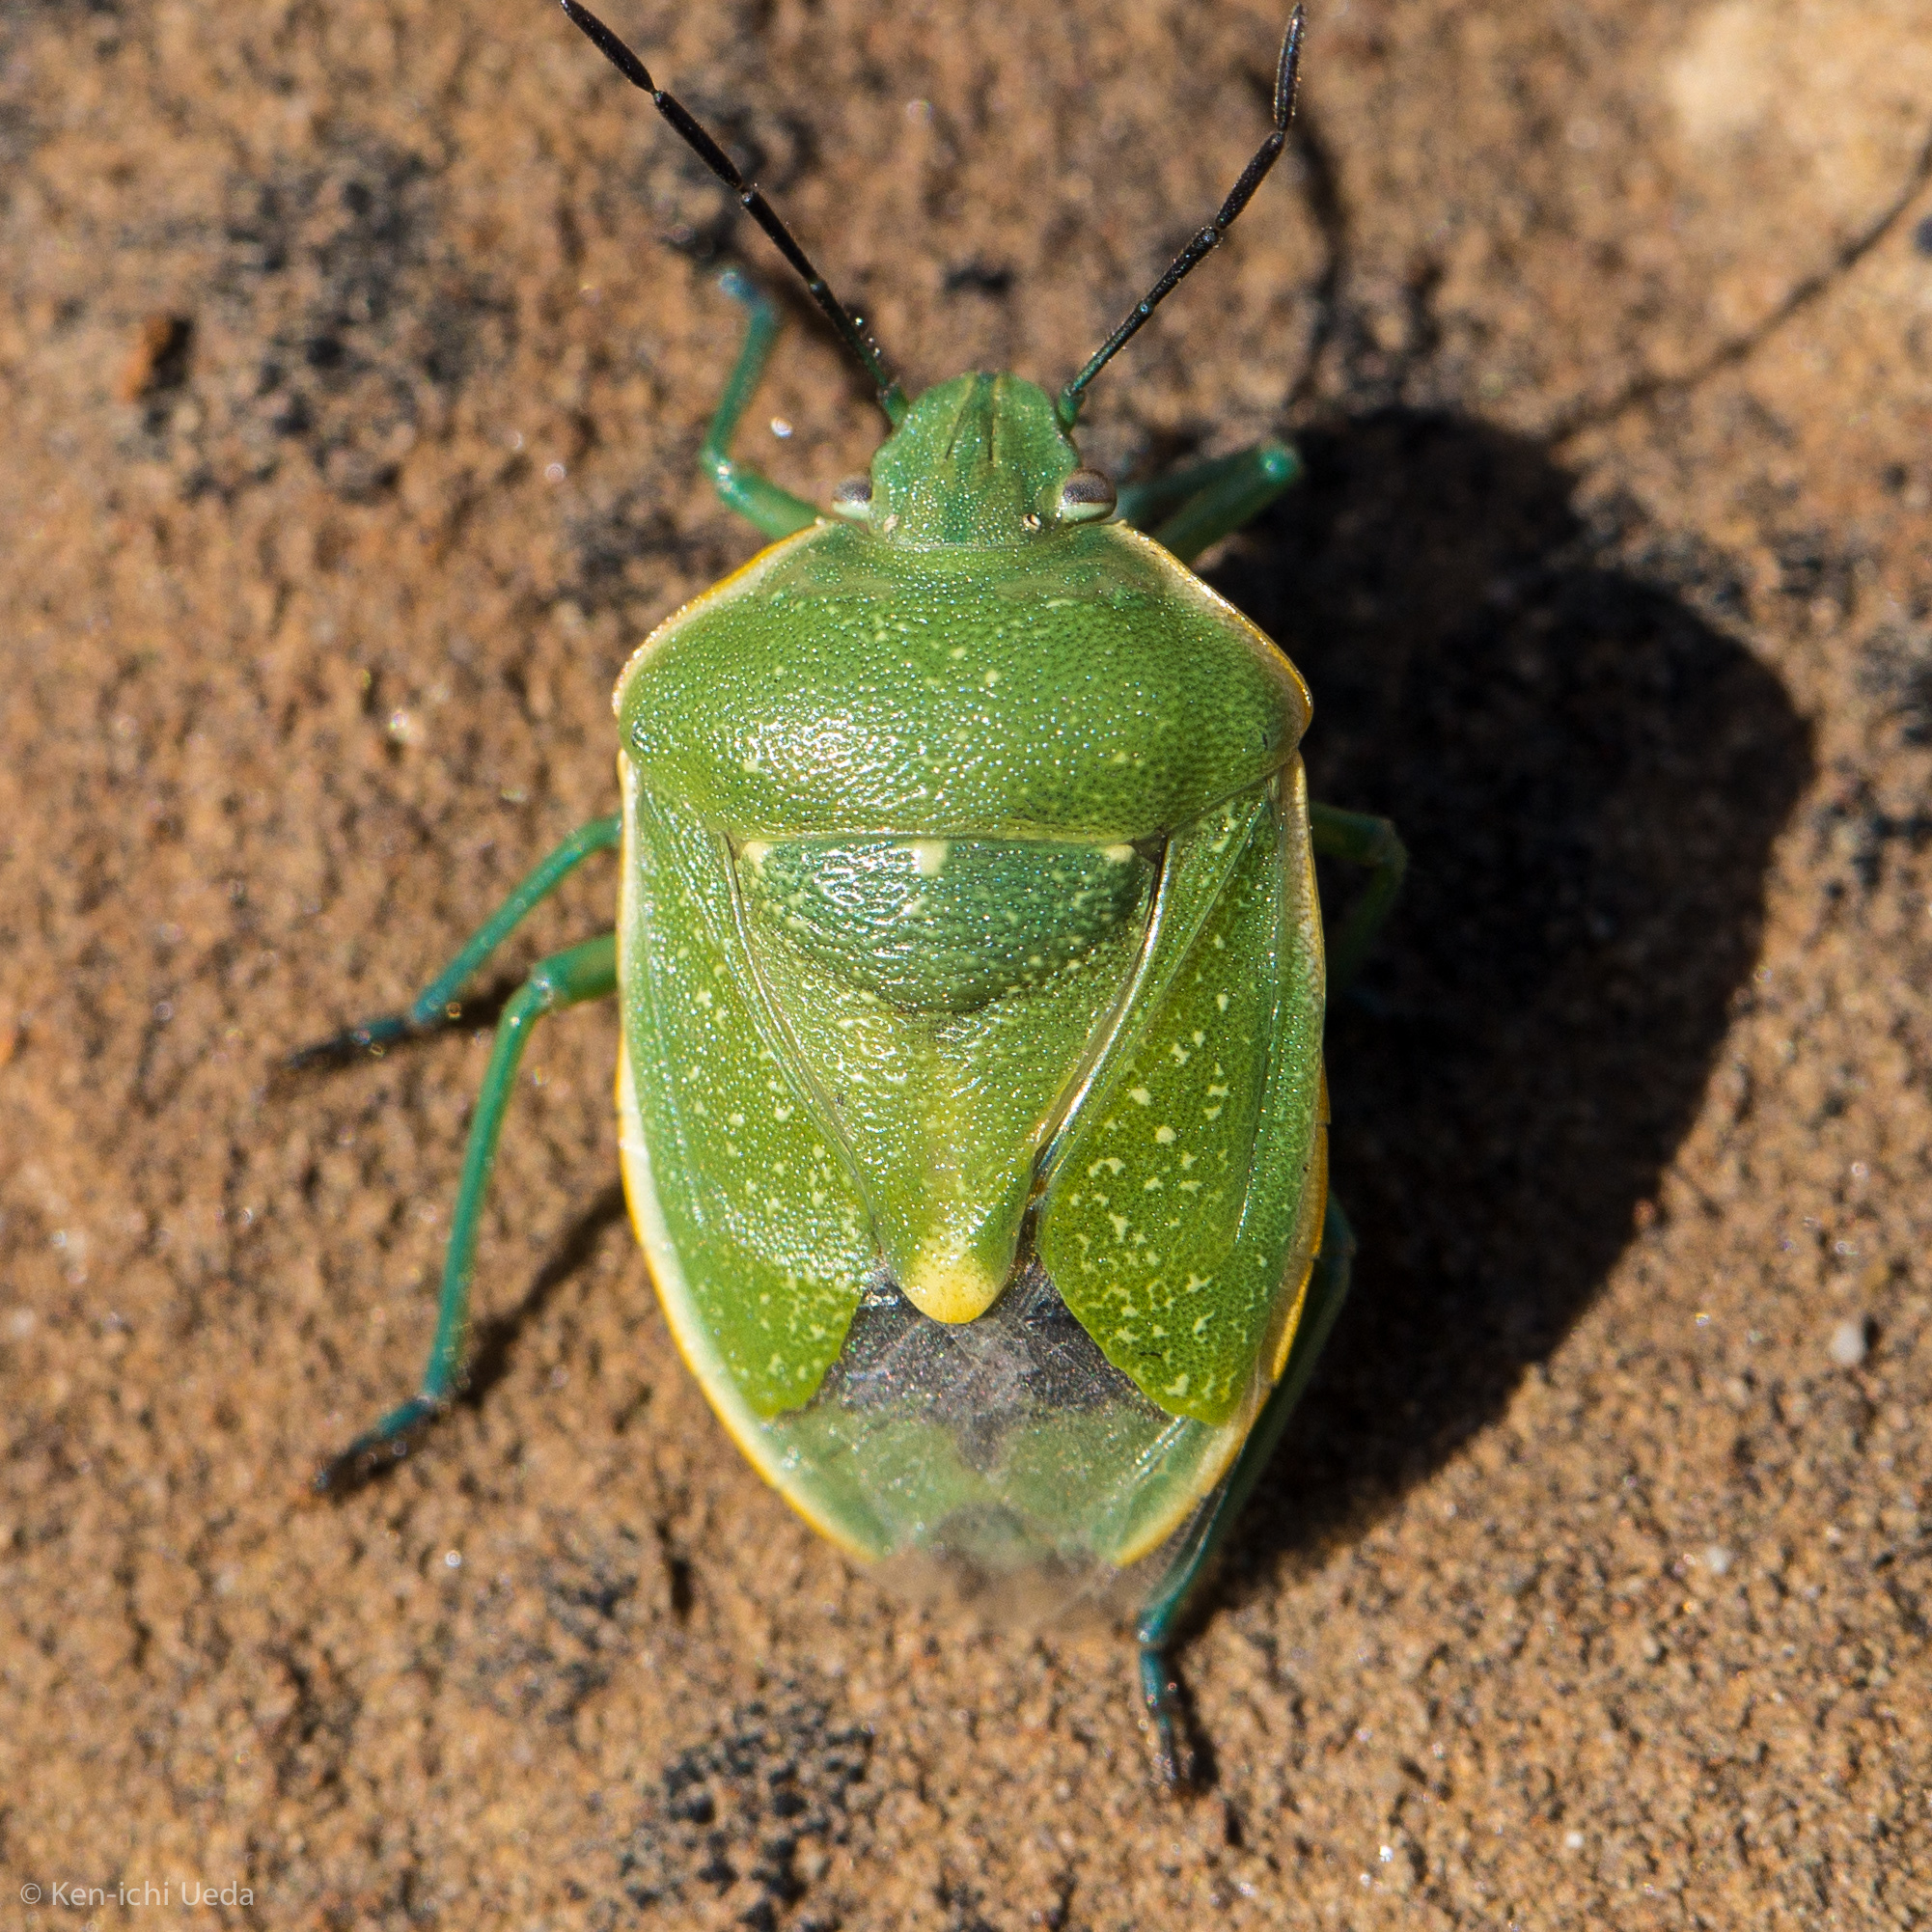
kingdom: Animalia
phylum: Arthropoda
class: Insecta
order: Hemiptera
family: Pentatomidae
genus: Chlorochroa
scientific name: Chlorochroa uhleri
